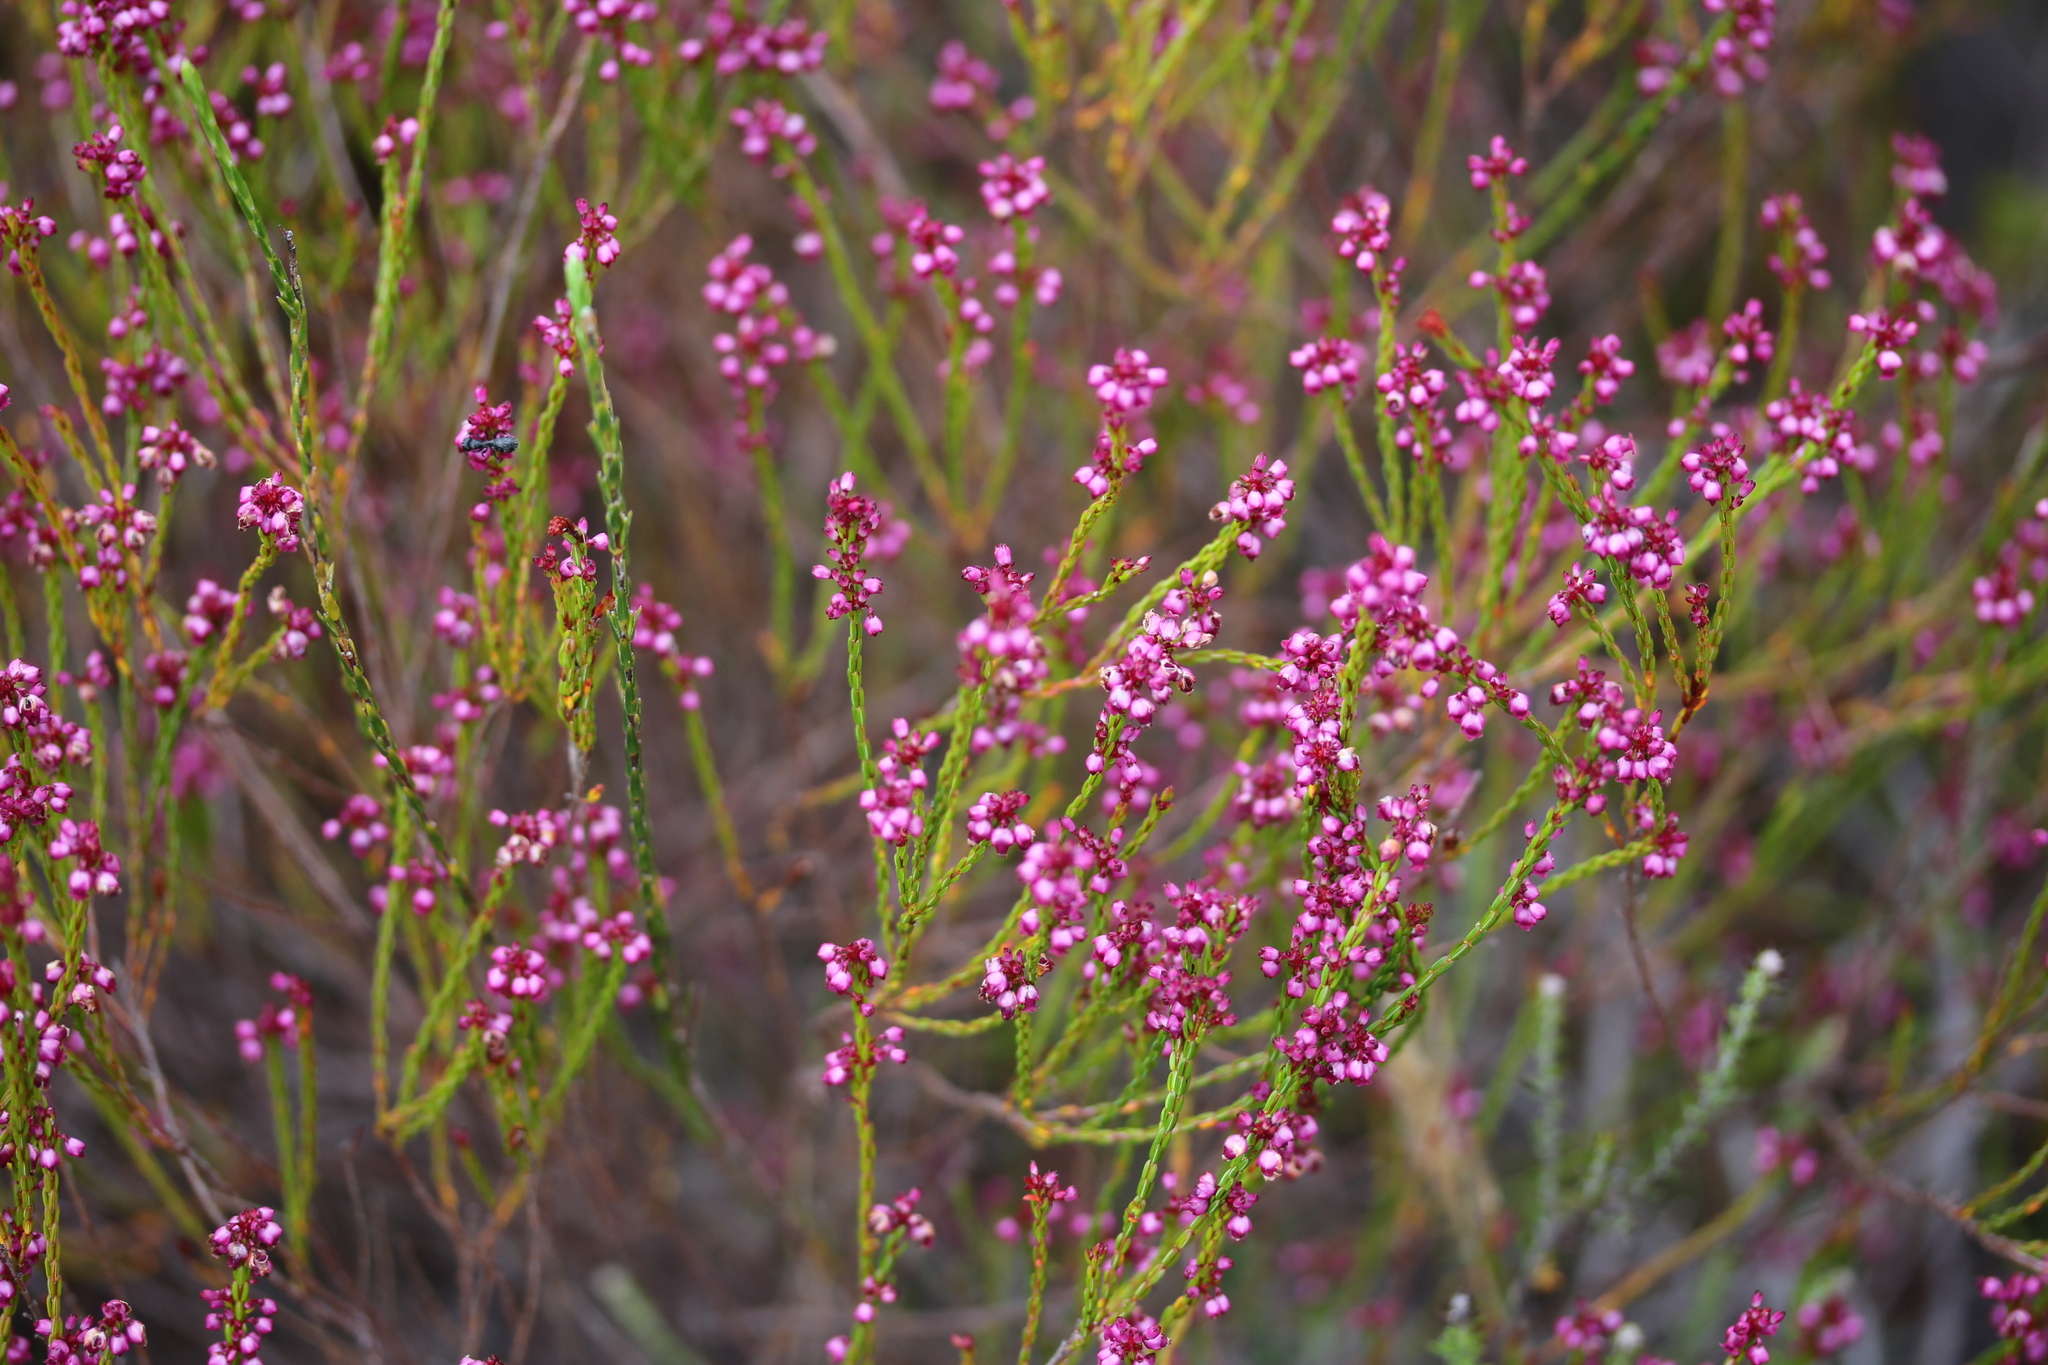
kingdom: Plantae
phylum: Tracheophyta
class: Magnoliopsida
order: Ericales
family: Ericaceae
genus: Erica
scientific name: Erica rhopalantha
